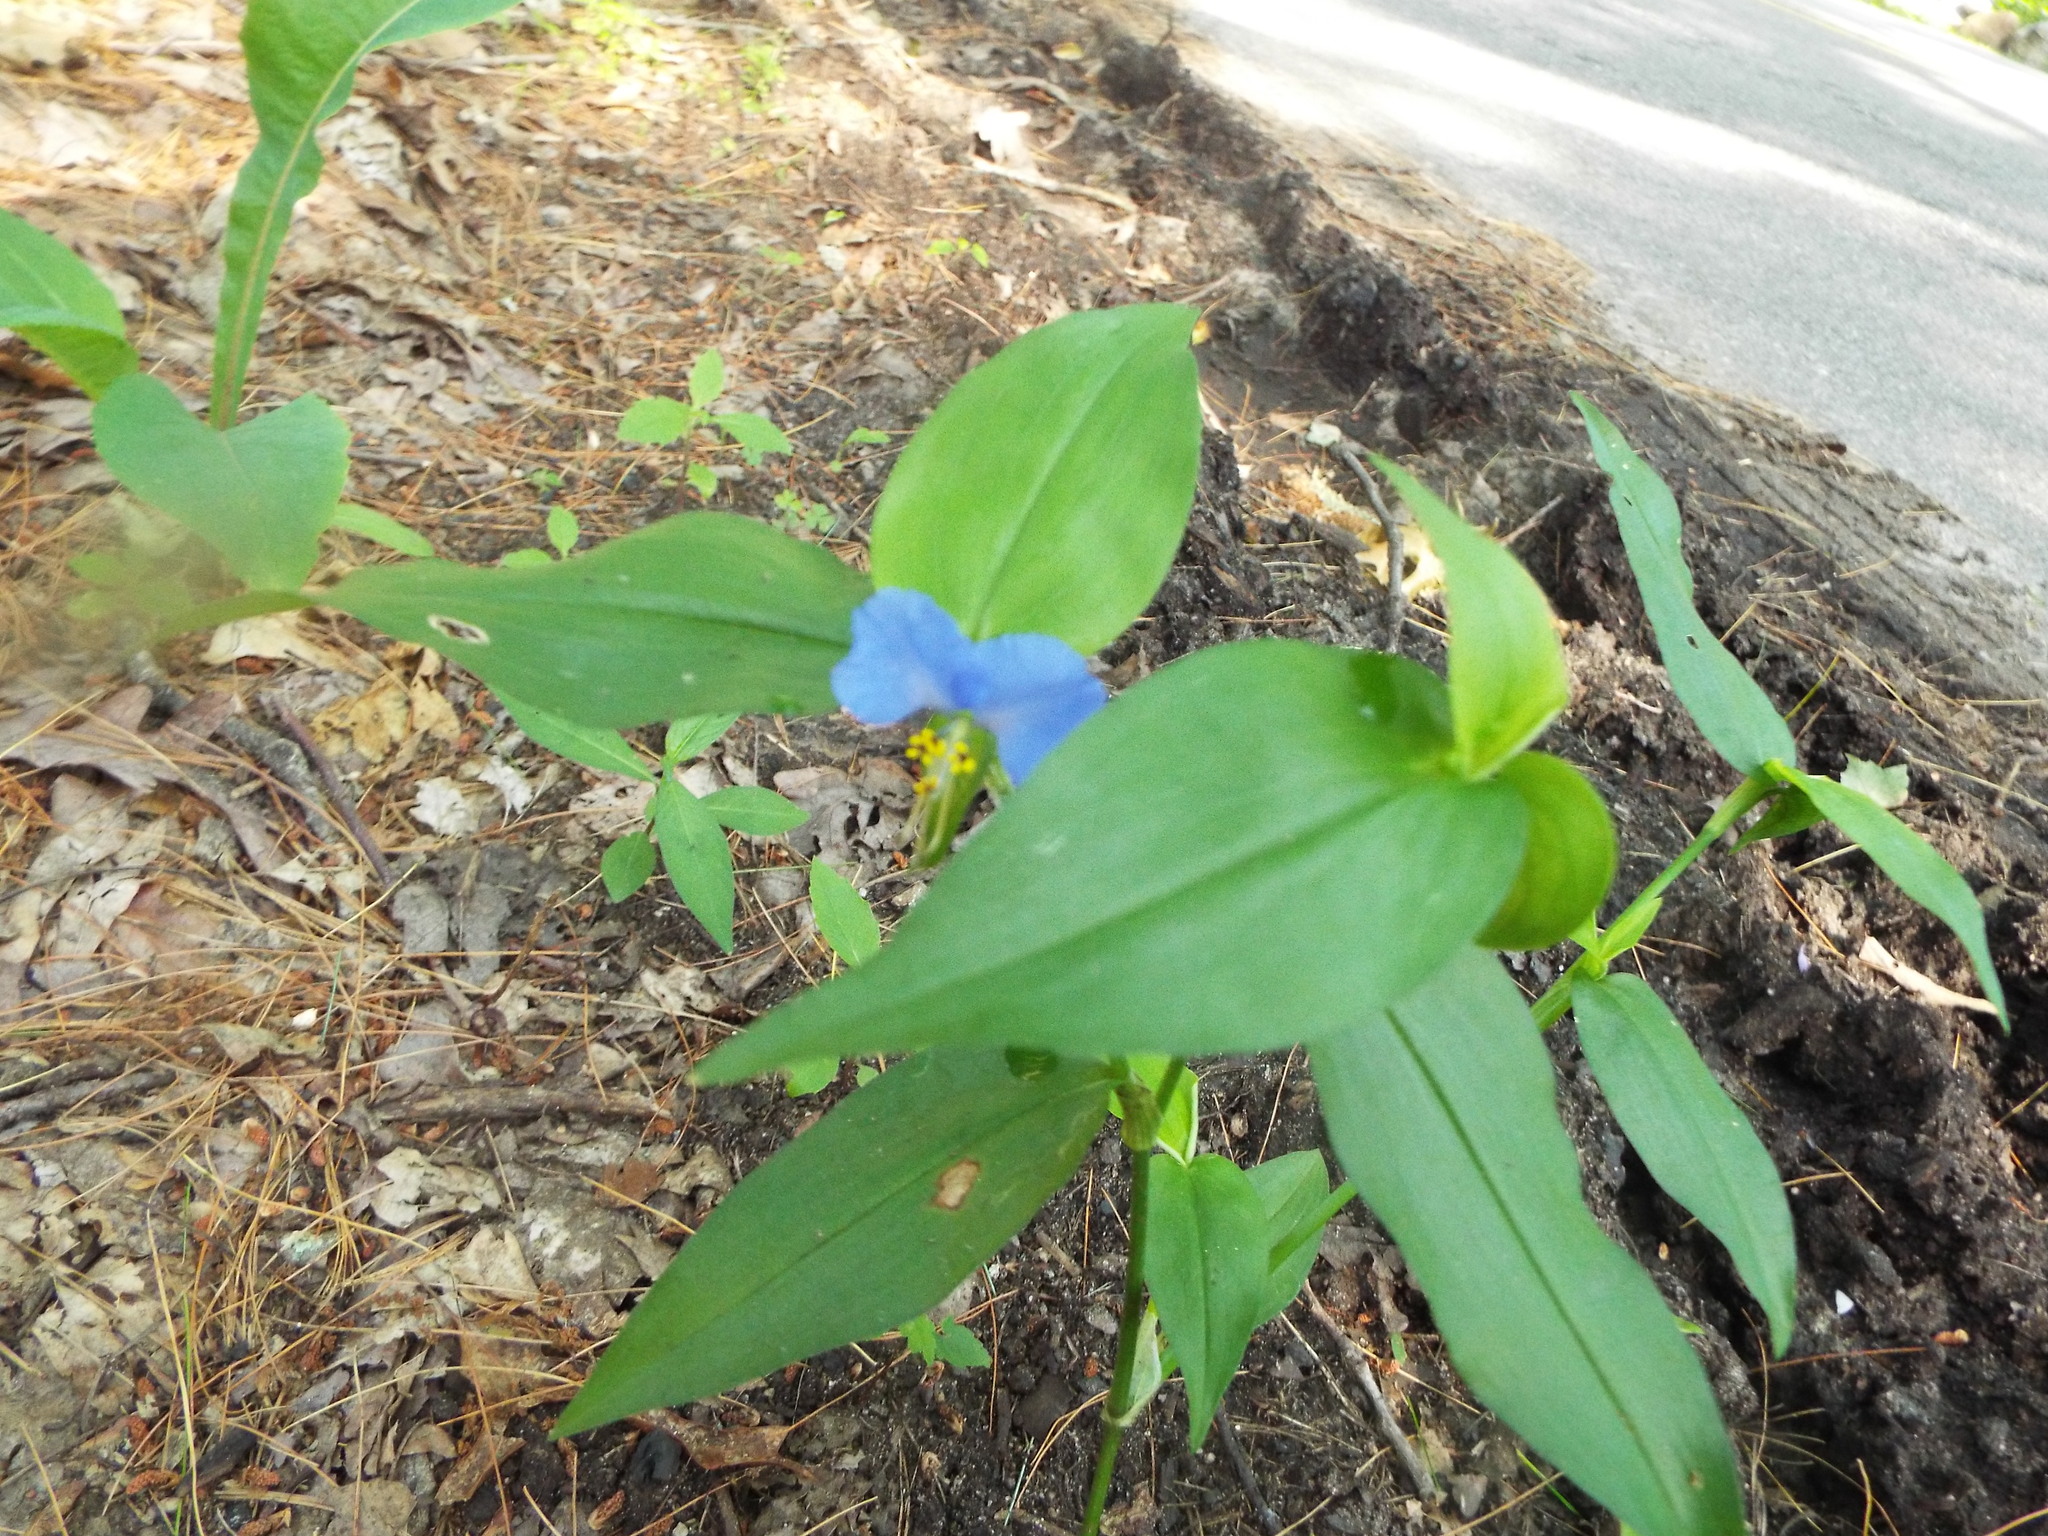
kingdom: Plantae
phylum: Tracheophyta
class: Liliopsida
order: Commelinales
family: Commelinaceae
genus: Commelina
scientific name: Commelina communis
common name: Asiatic dayflower
